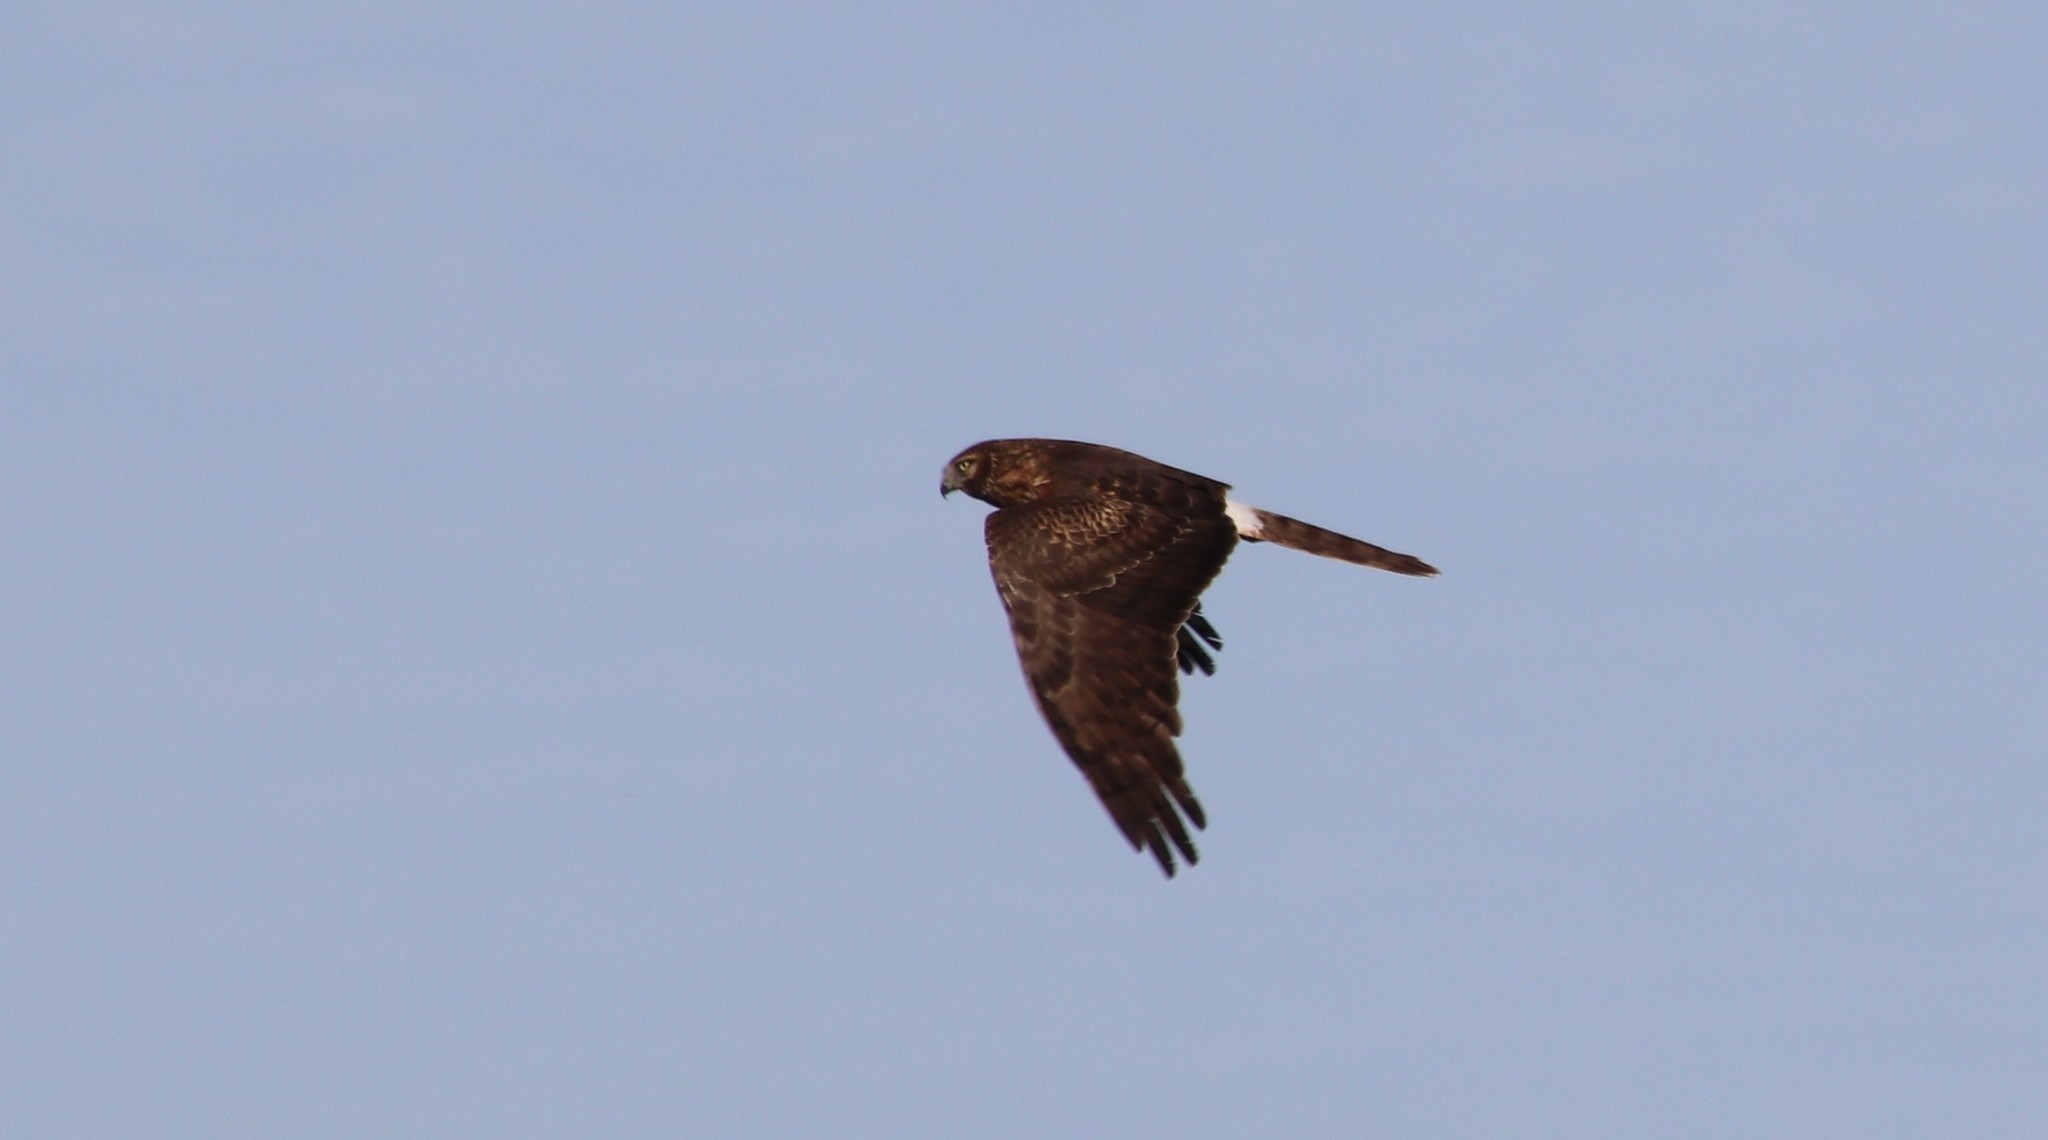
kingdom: Animalia
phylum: Chordata
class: Aves
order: Accipitriformes
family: Accipitridae
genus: Circus
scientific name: Circus cyaneus
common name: Hen harrier
